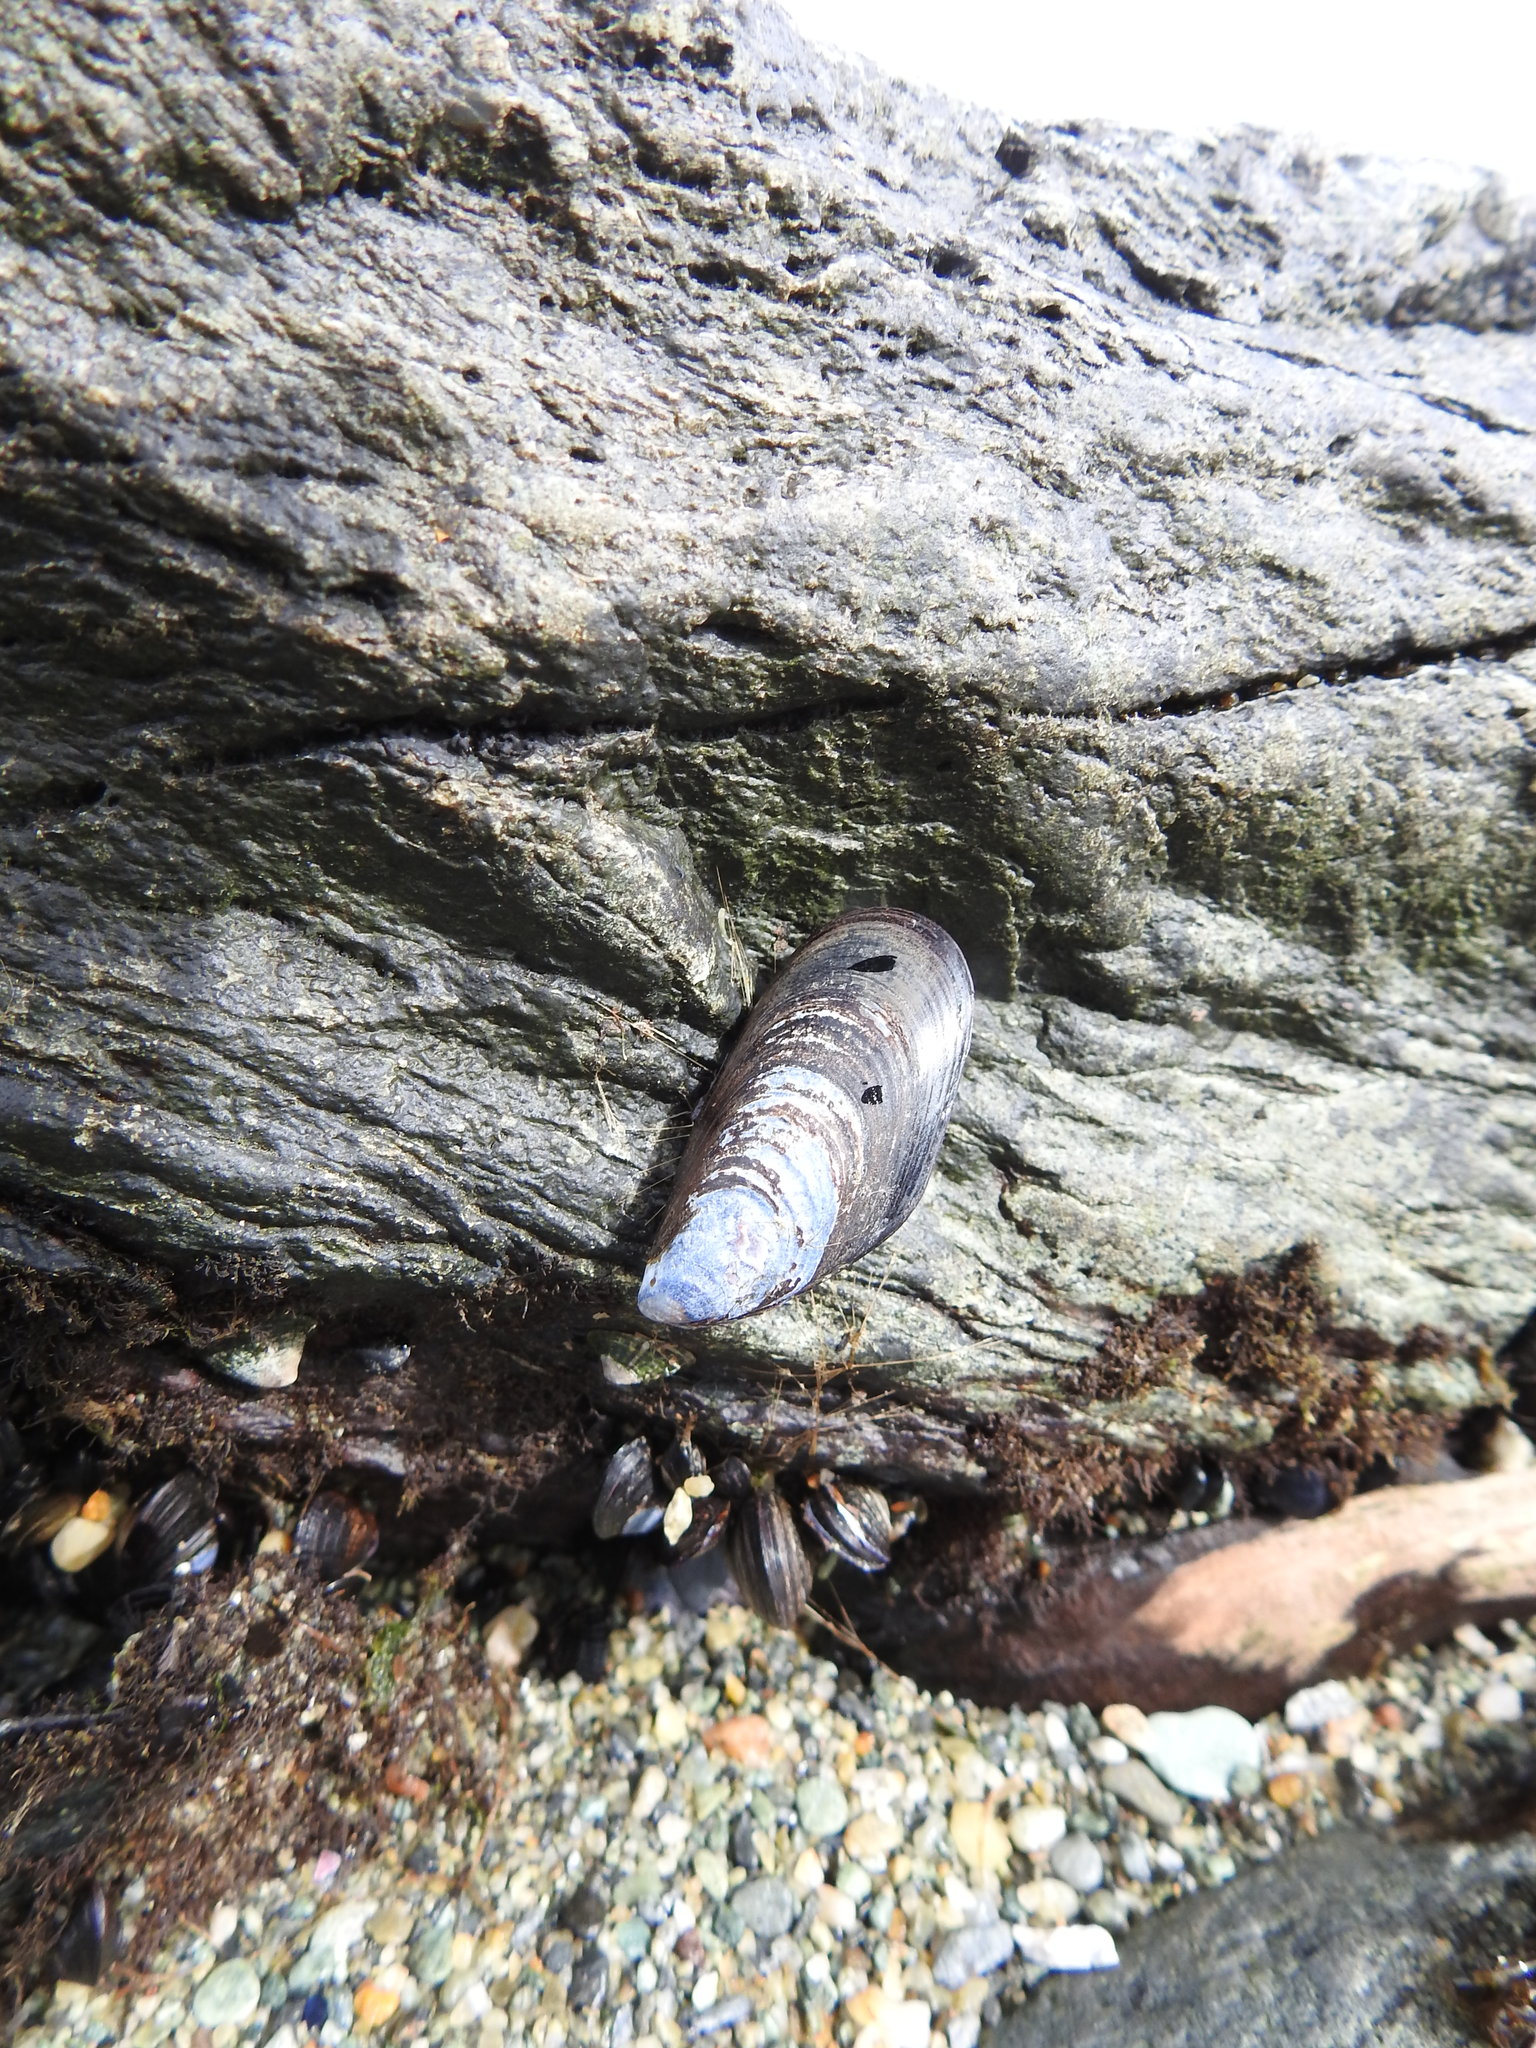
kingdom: Animalia
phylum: Mollusca
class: Bivalvia
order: Mytilida
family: Mytilidae
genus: Mytilus
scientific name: Mytilus chilensis
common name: Chilean mussel
